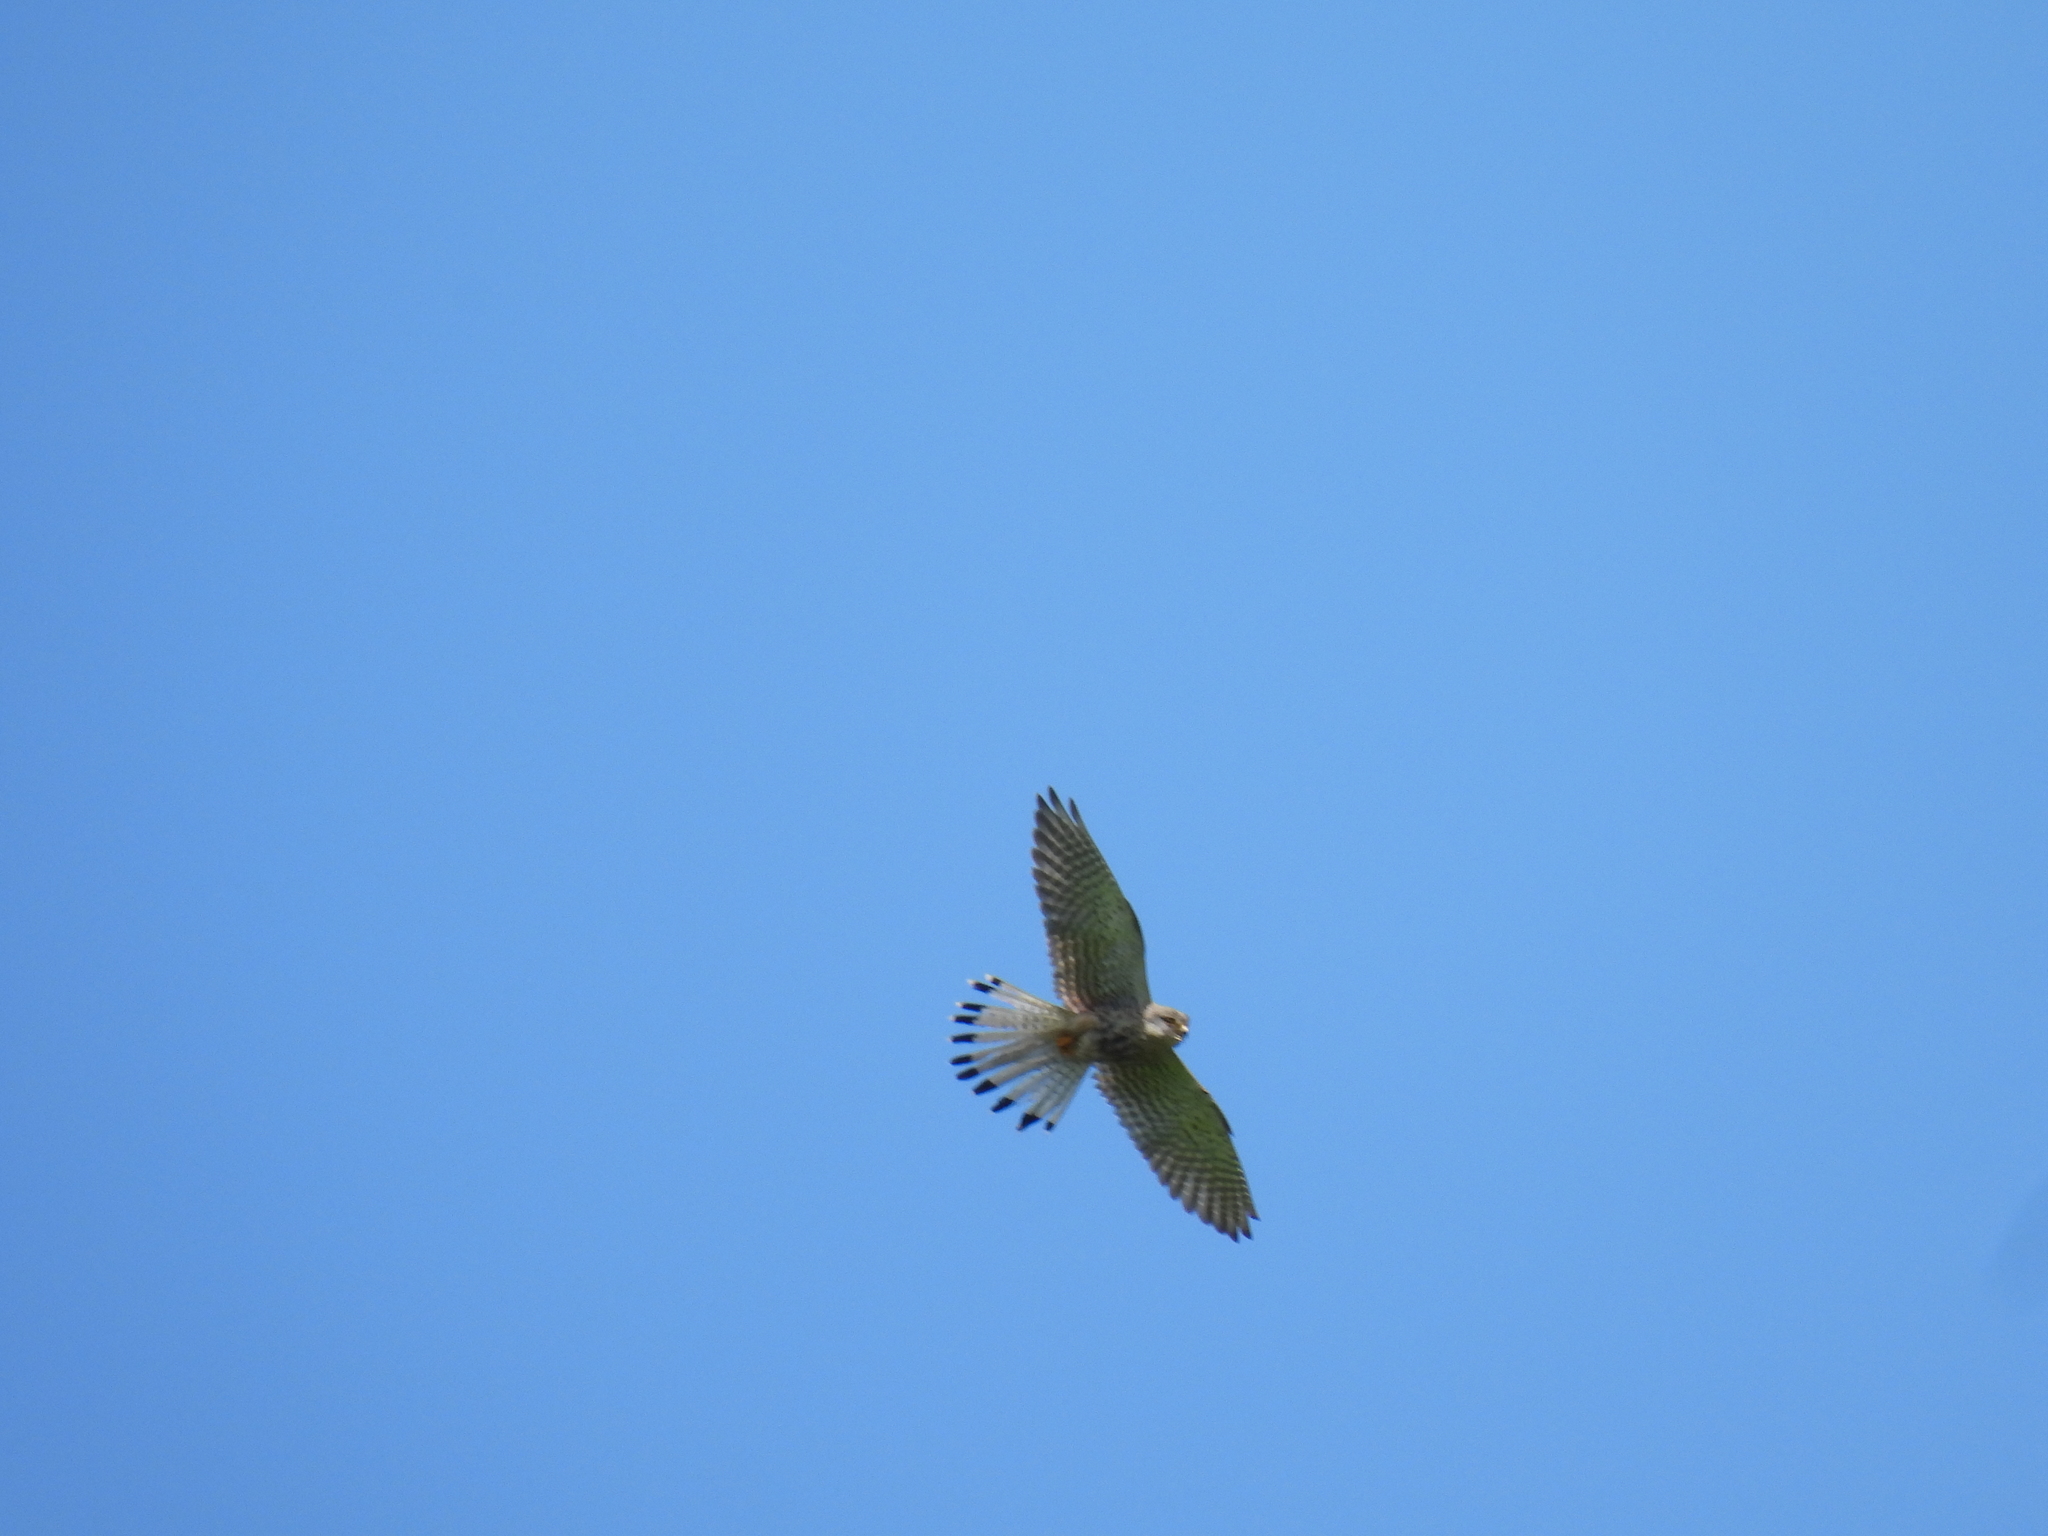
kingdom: Animalia
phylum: Chordata
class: Aves
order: Falconiformes
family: Falconidae
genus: Falco
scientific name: Falco tinnunculus
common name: Common kestrel
